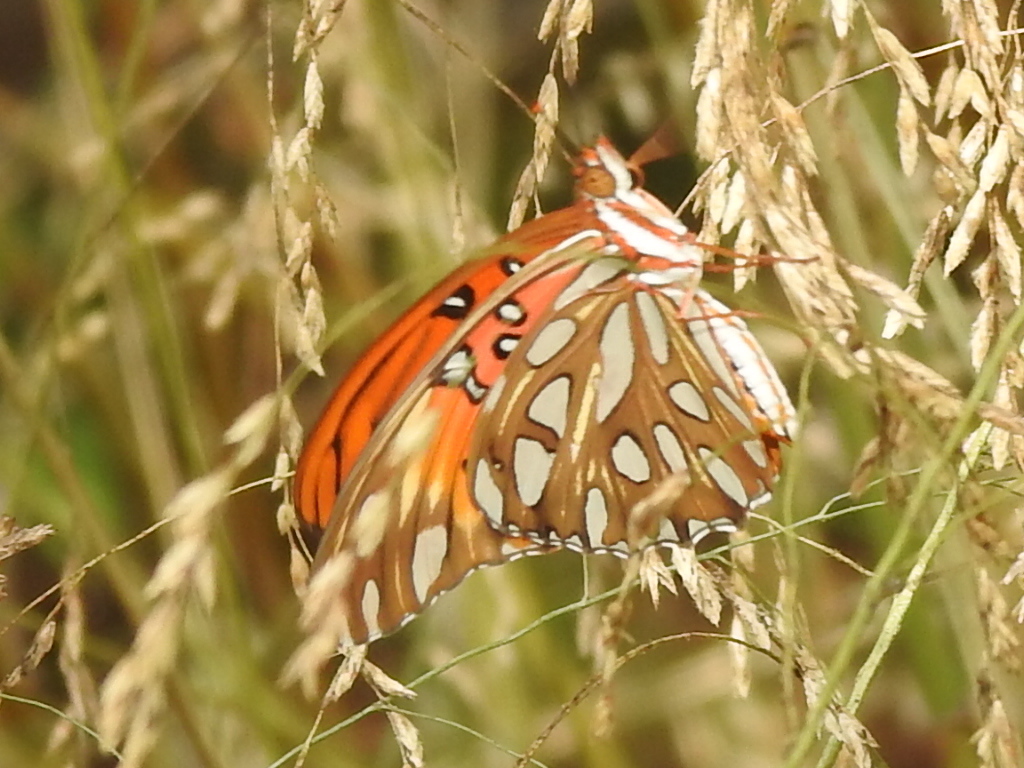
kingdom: Animalia
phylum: Arthropoda
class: Insecta
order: Lepidoptera
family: Nymphalidae
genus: Dione
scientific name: Dione vanillae
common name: Gulf fritillary
